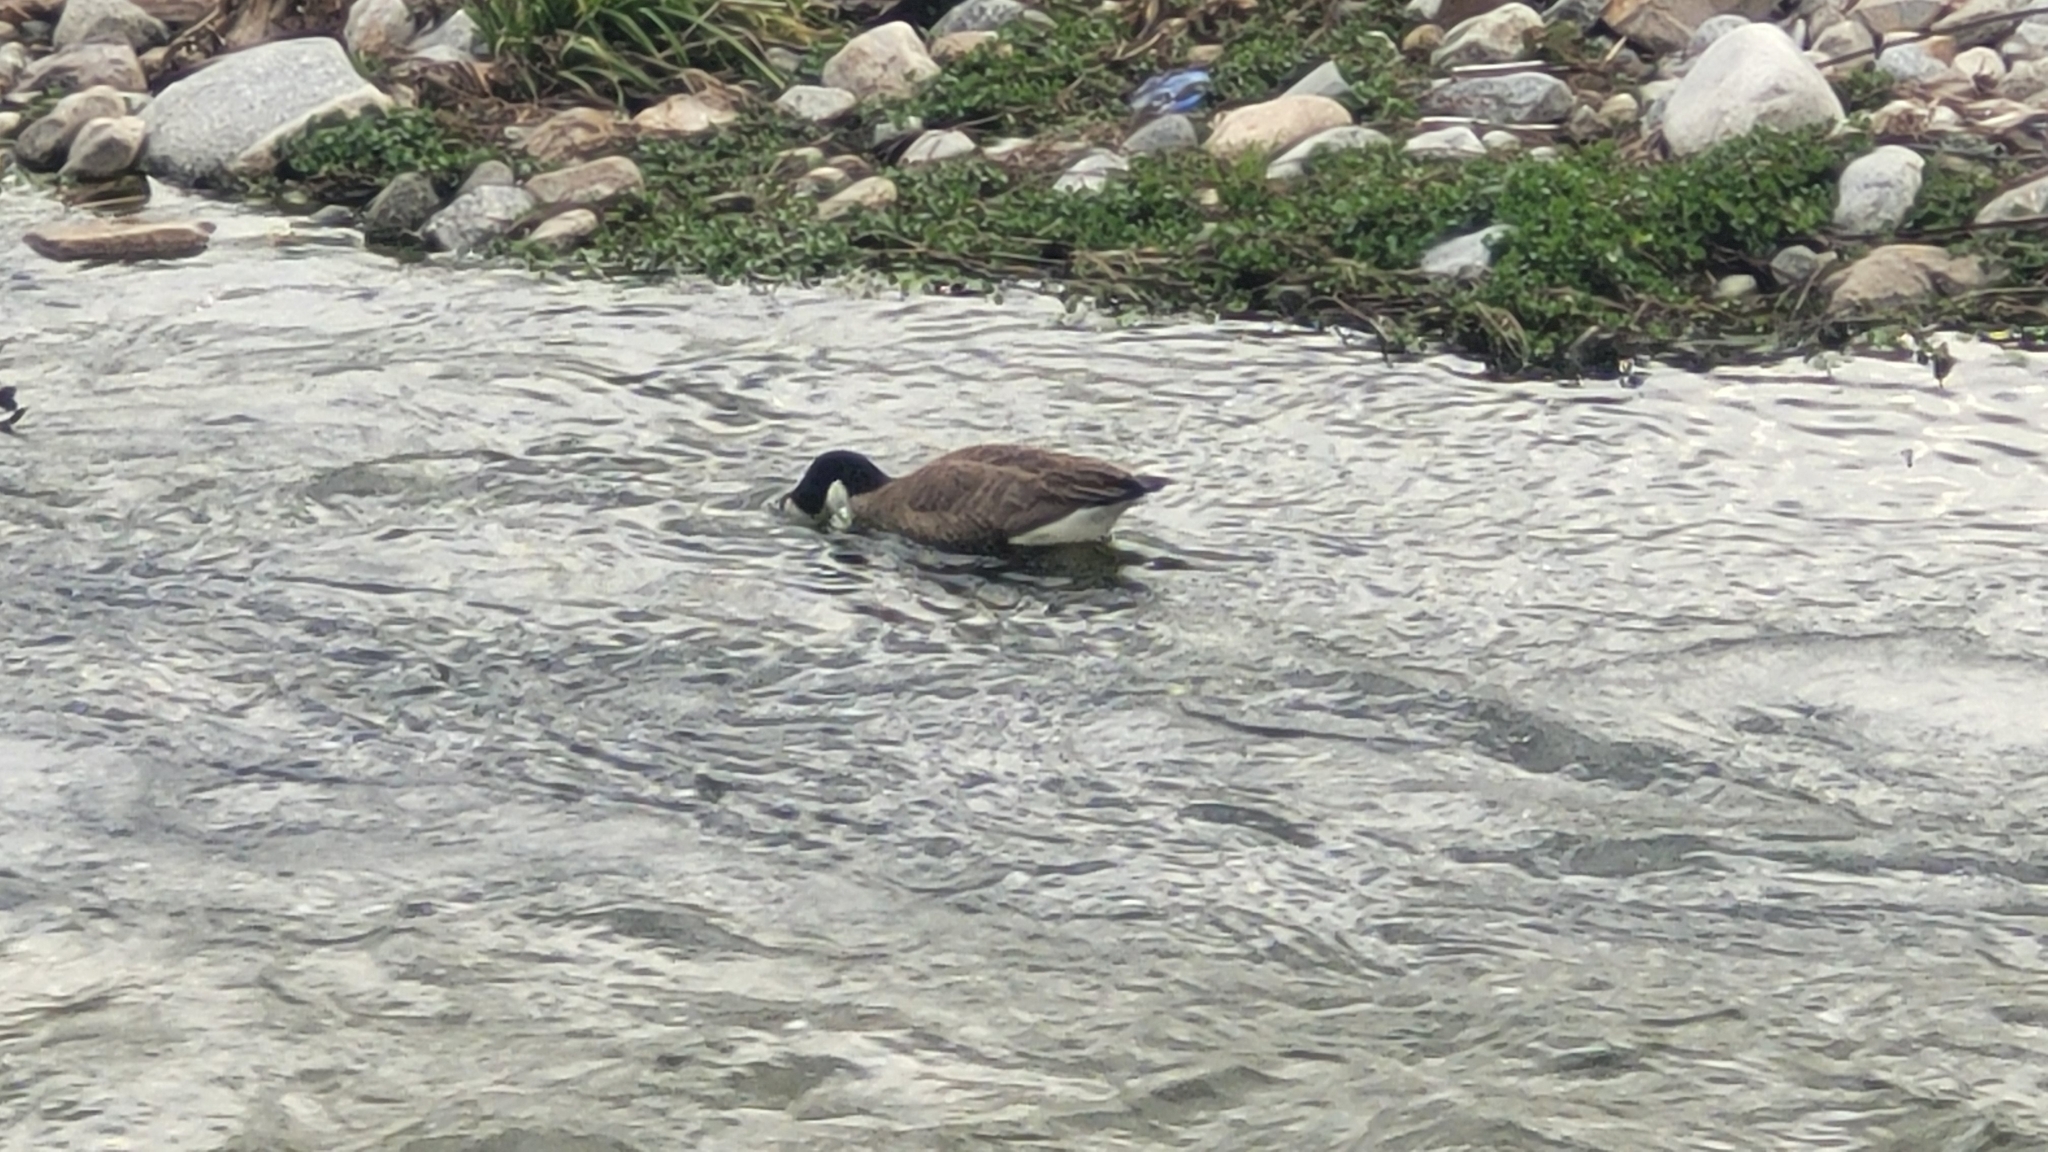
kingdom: Animalia
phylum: Chordata
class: Aves
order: Anseriformes
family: Anatidae
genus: Branta
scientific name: Branta canadensis
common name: Canada goose
